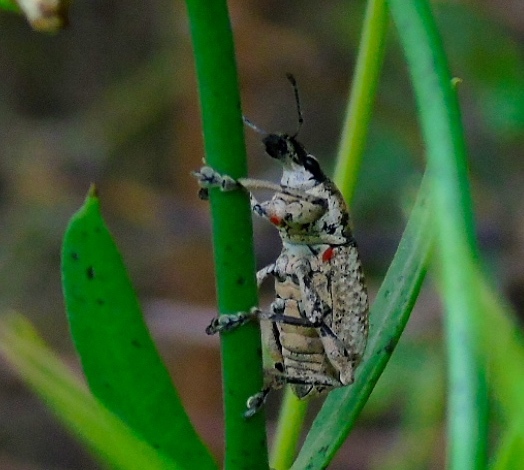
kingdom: Animalia
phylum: Arthropoda
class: Insecta
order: Coleoptera
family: Curculionidae
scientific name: Curculionidae
